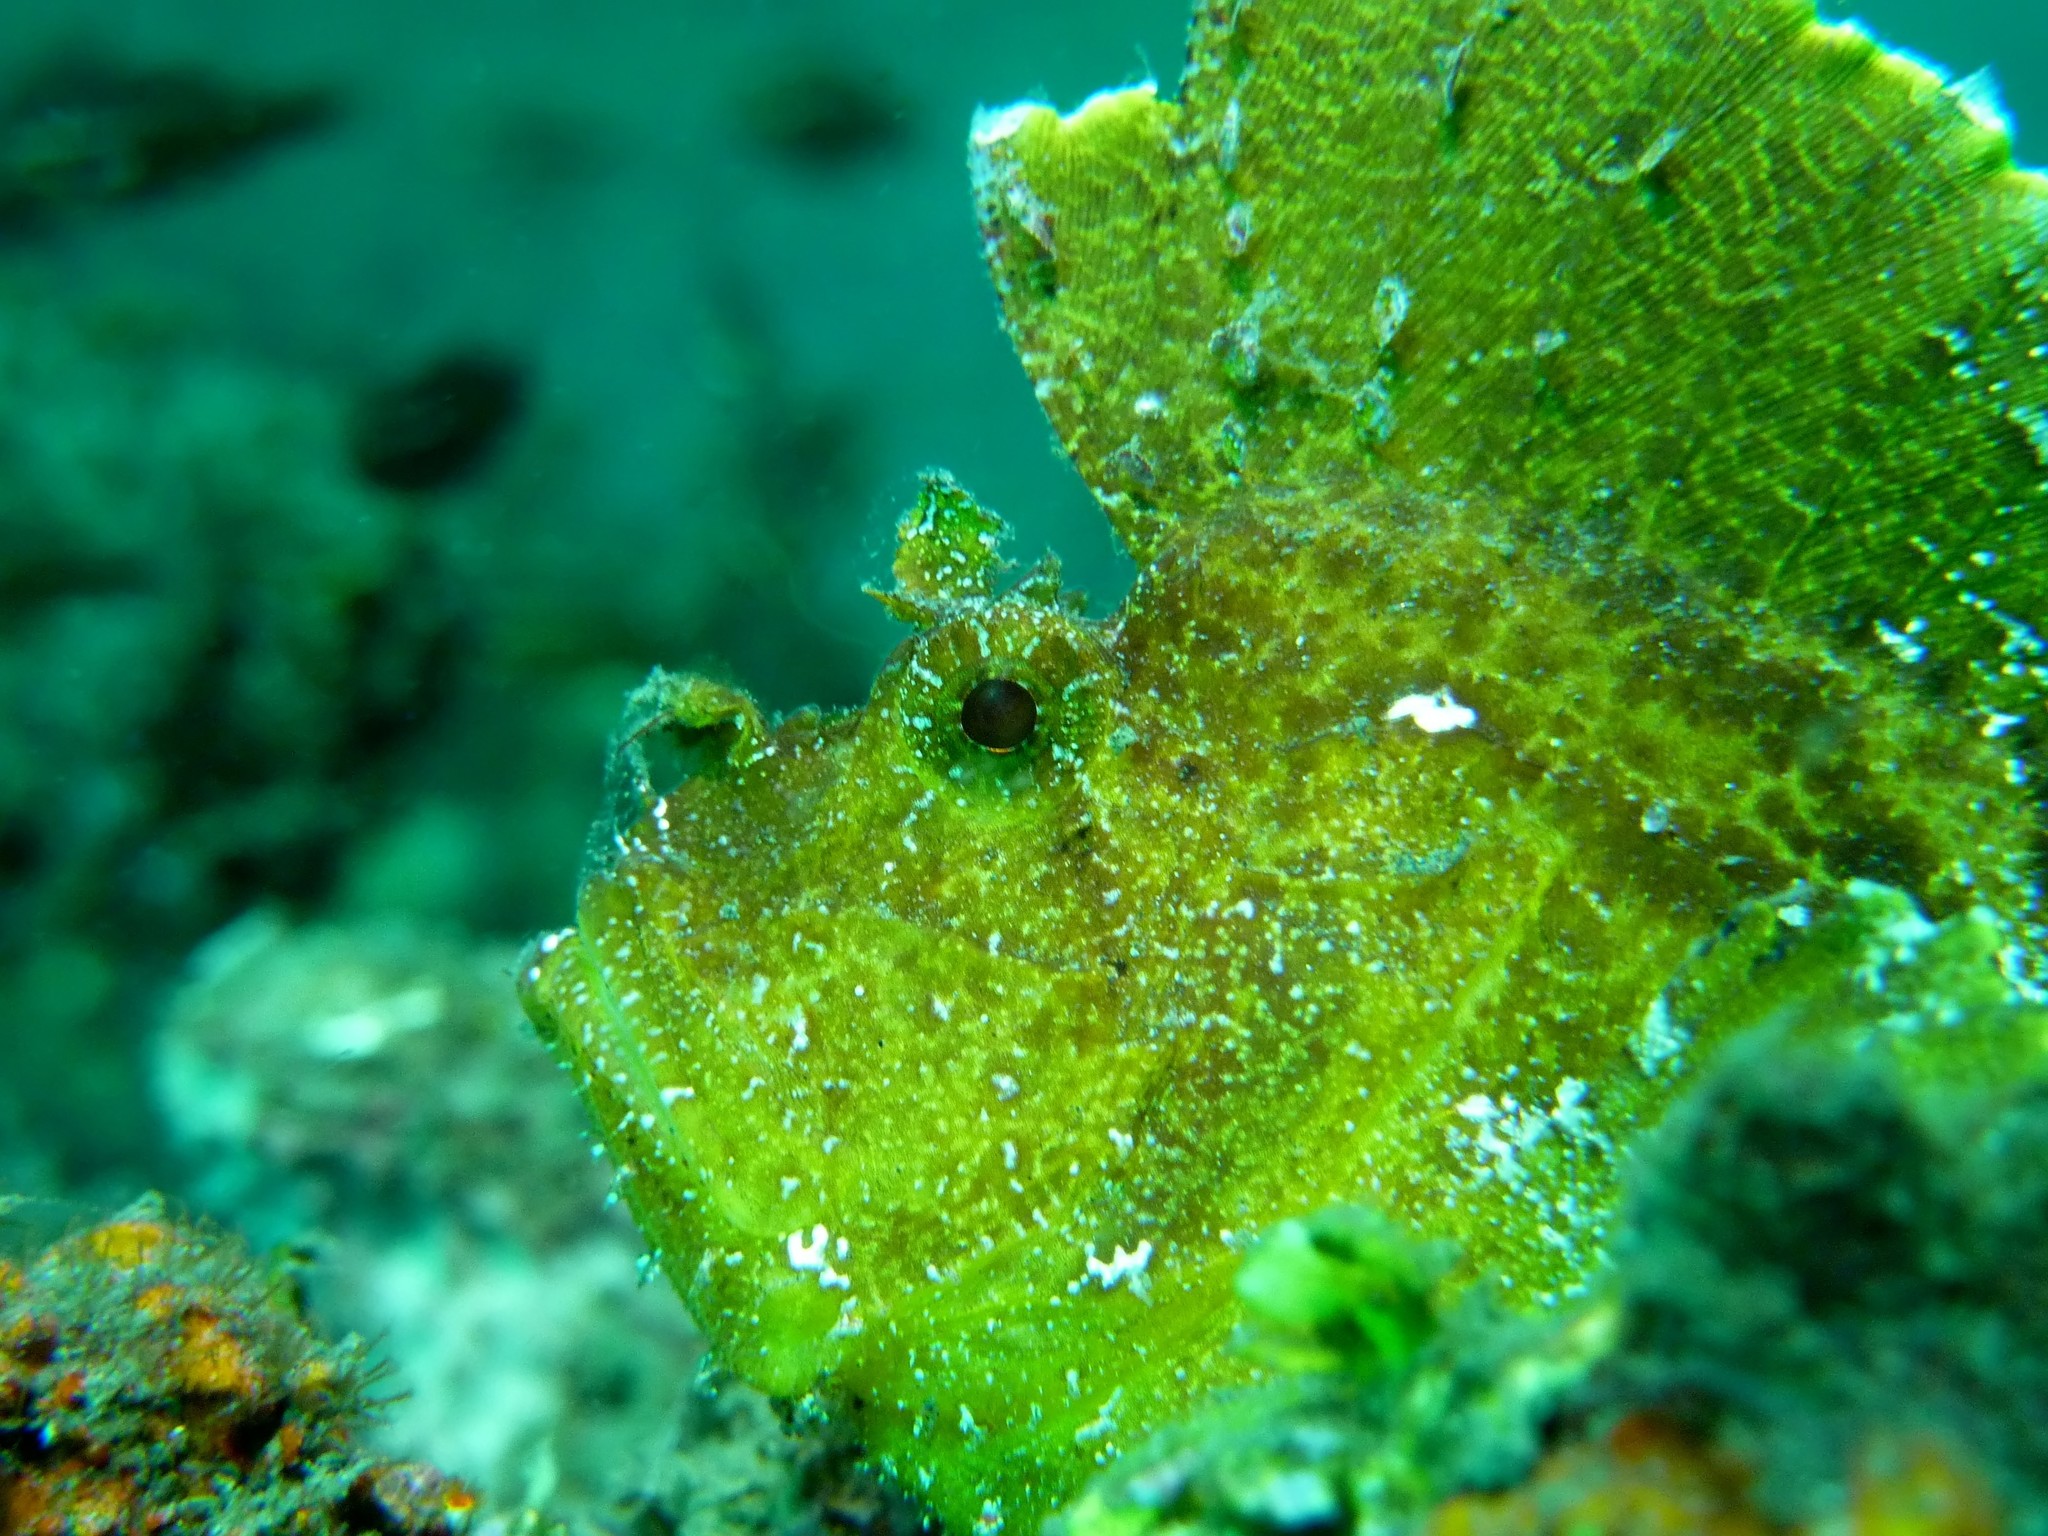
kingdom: Animalia
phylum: Chordata
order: Scorpaeniformes
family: Scorpaenidae
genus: Taenianotus
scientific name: Taenianotus triacanthus
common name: Leaf scorpionfish
